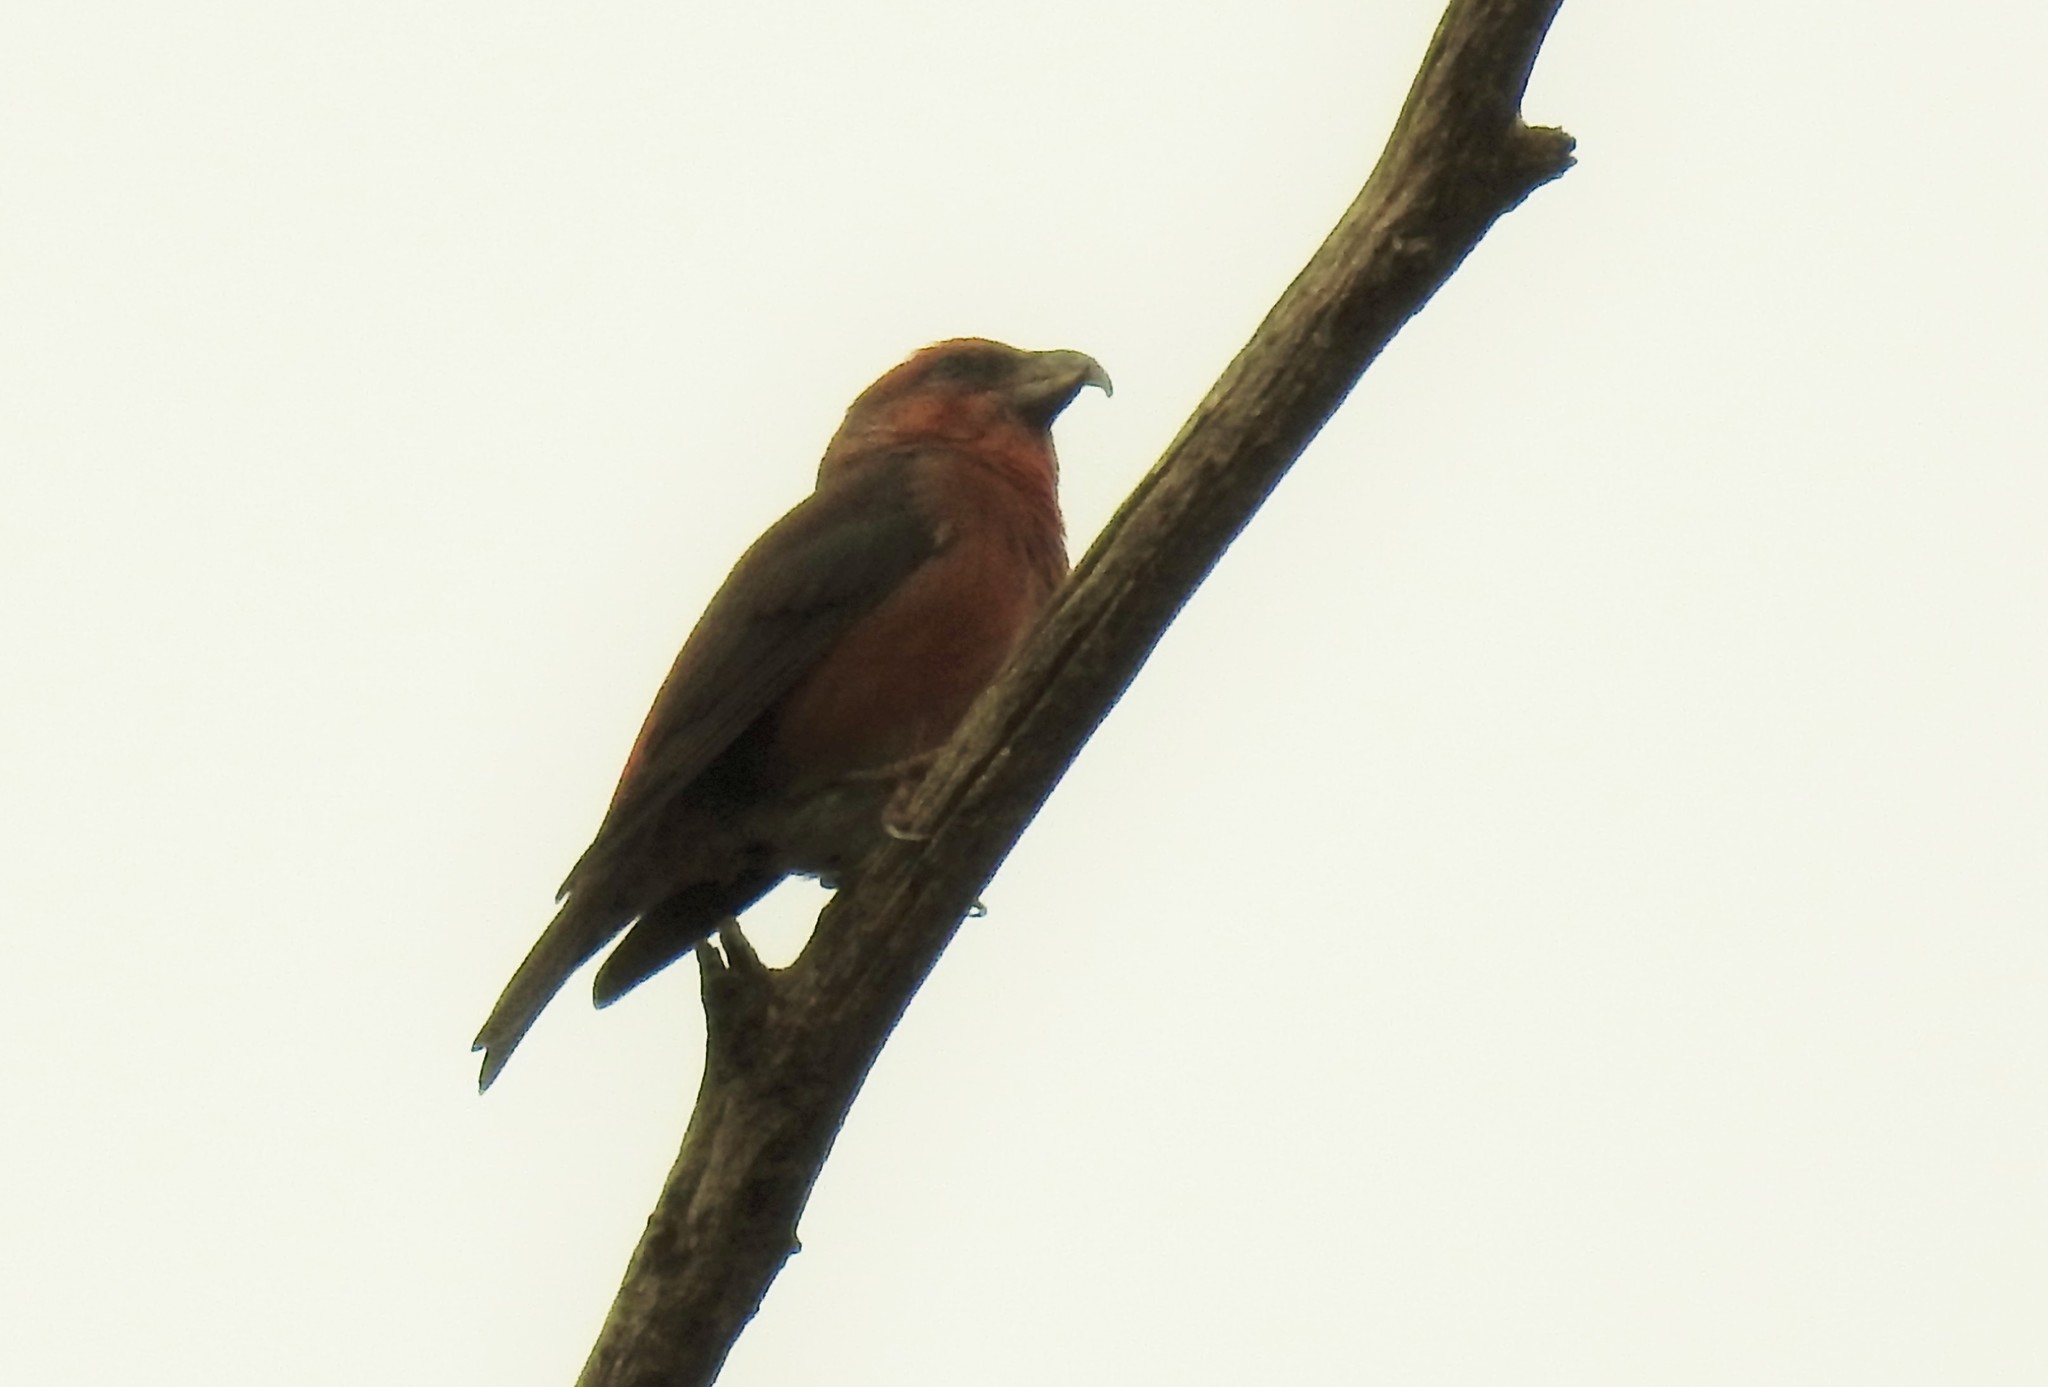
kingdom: Animalia
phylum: Chordata
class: Aves
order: Passeriformes
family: Fringillidae
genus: Loxia
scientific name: Loxia curvirostra
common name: Red crossbill
